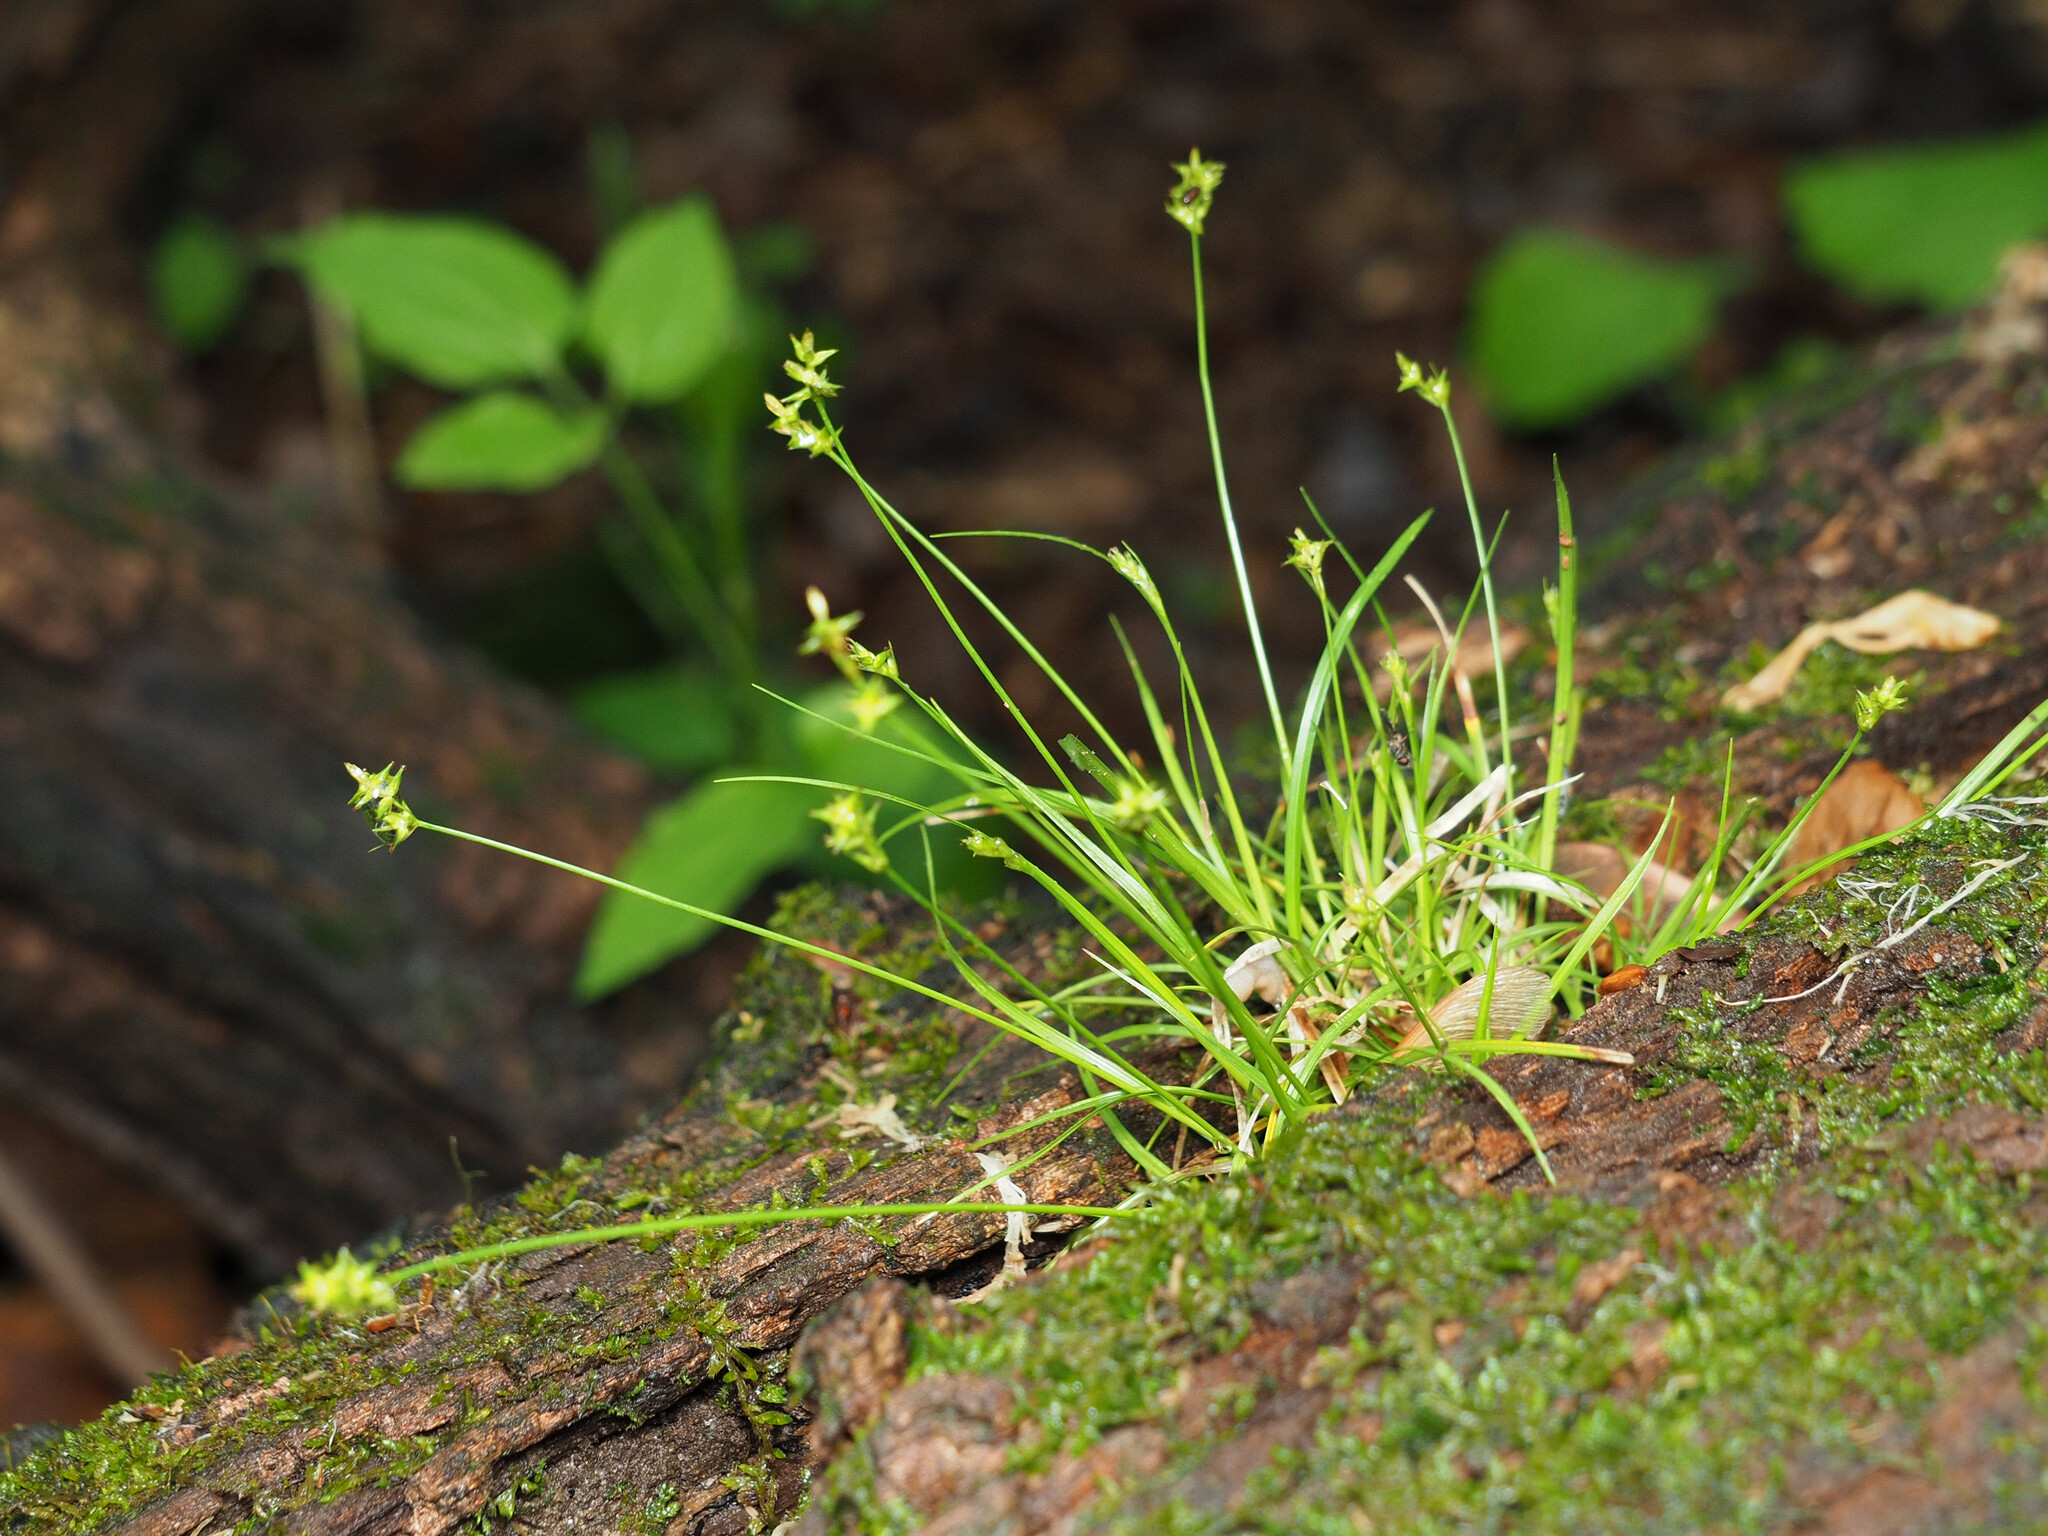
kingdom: Plantae
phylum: Tracheophyta
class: Liliopsida
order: Poales
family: Cyperaceae
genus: Carex
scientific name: Carex rosea
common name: Curly-styled wood sedge
